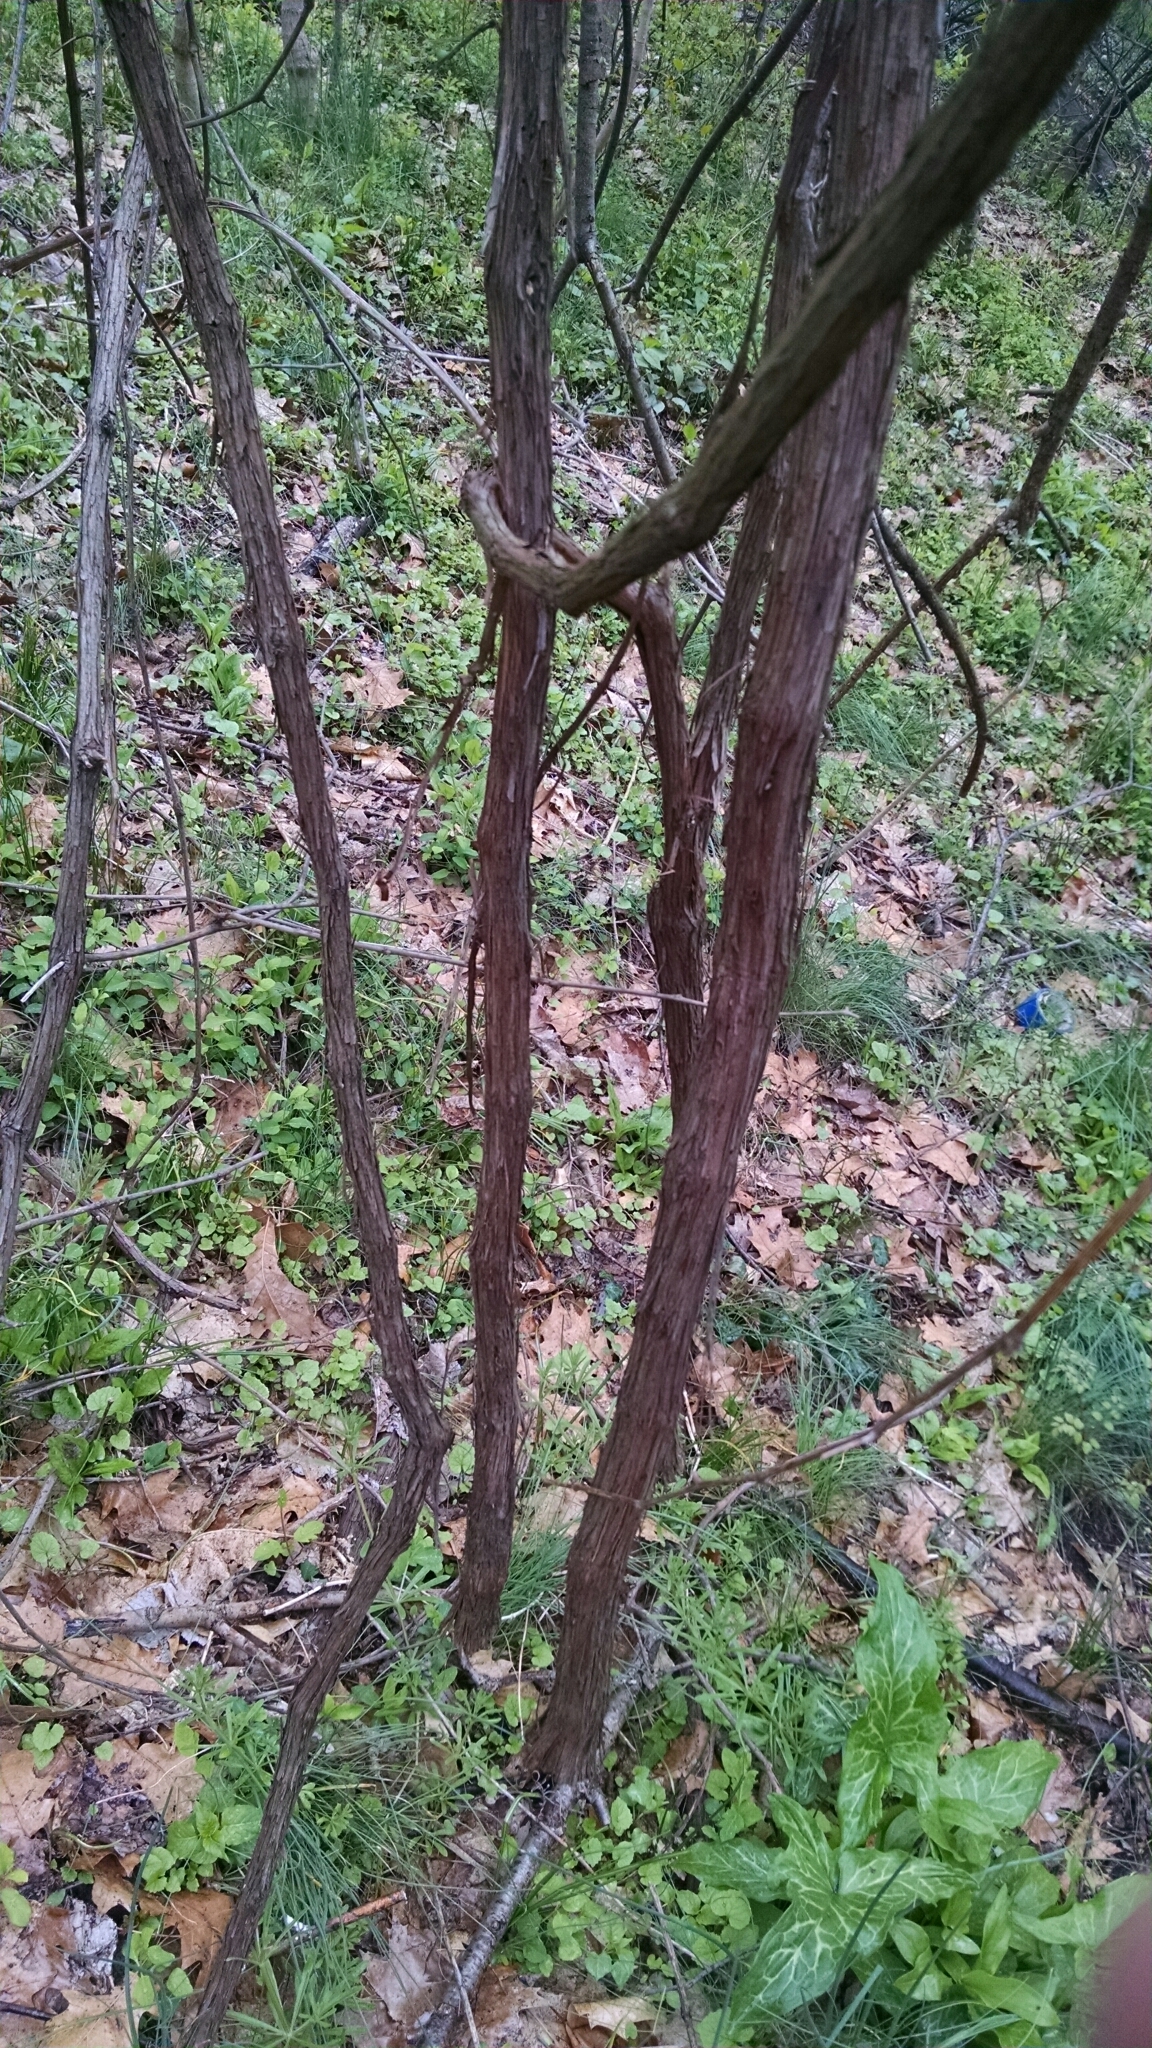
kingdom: Plantae
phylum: Tracheophyta
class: Magnoliopsida
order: Vitales
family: Vitaceae
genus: Vitis
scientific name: Vitis
